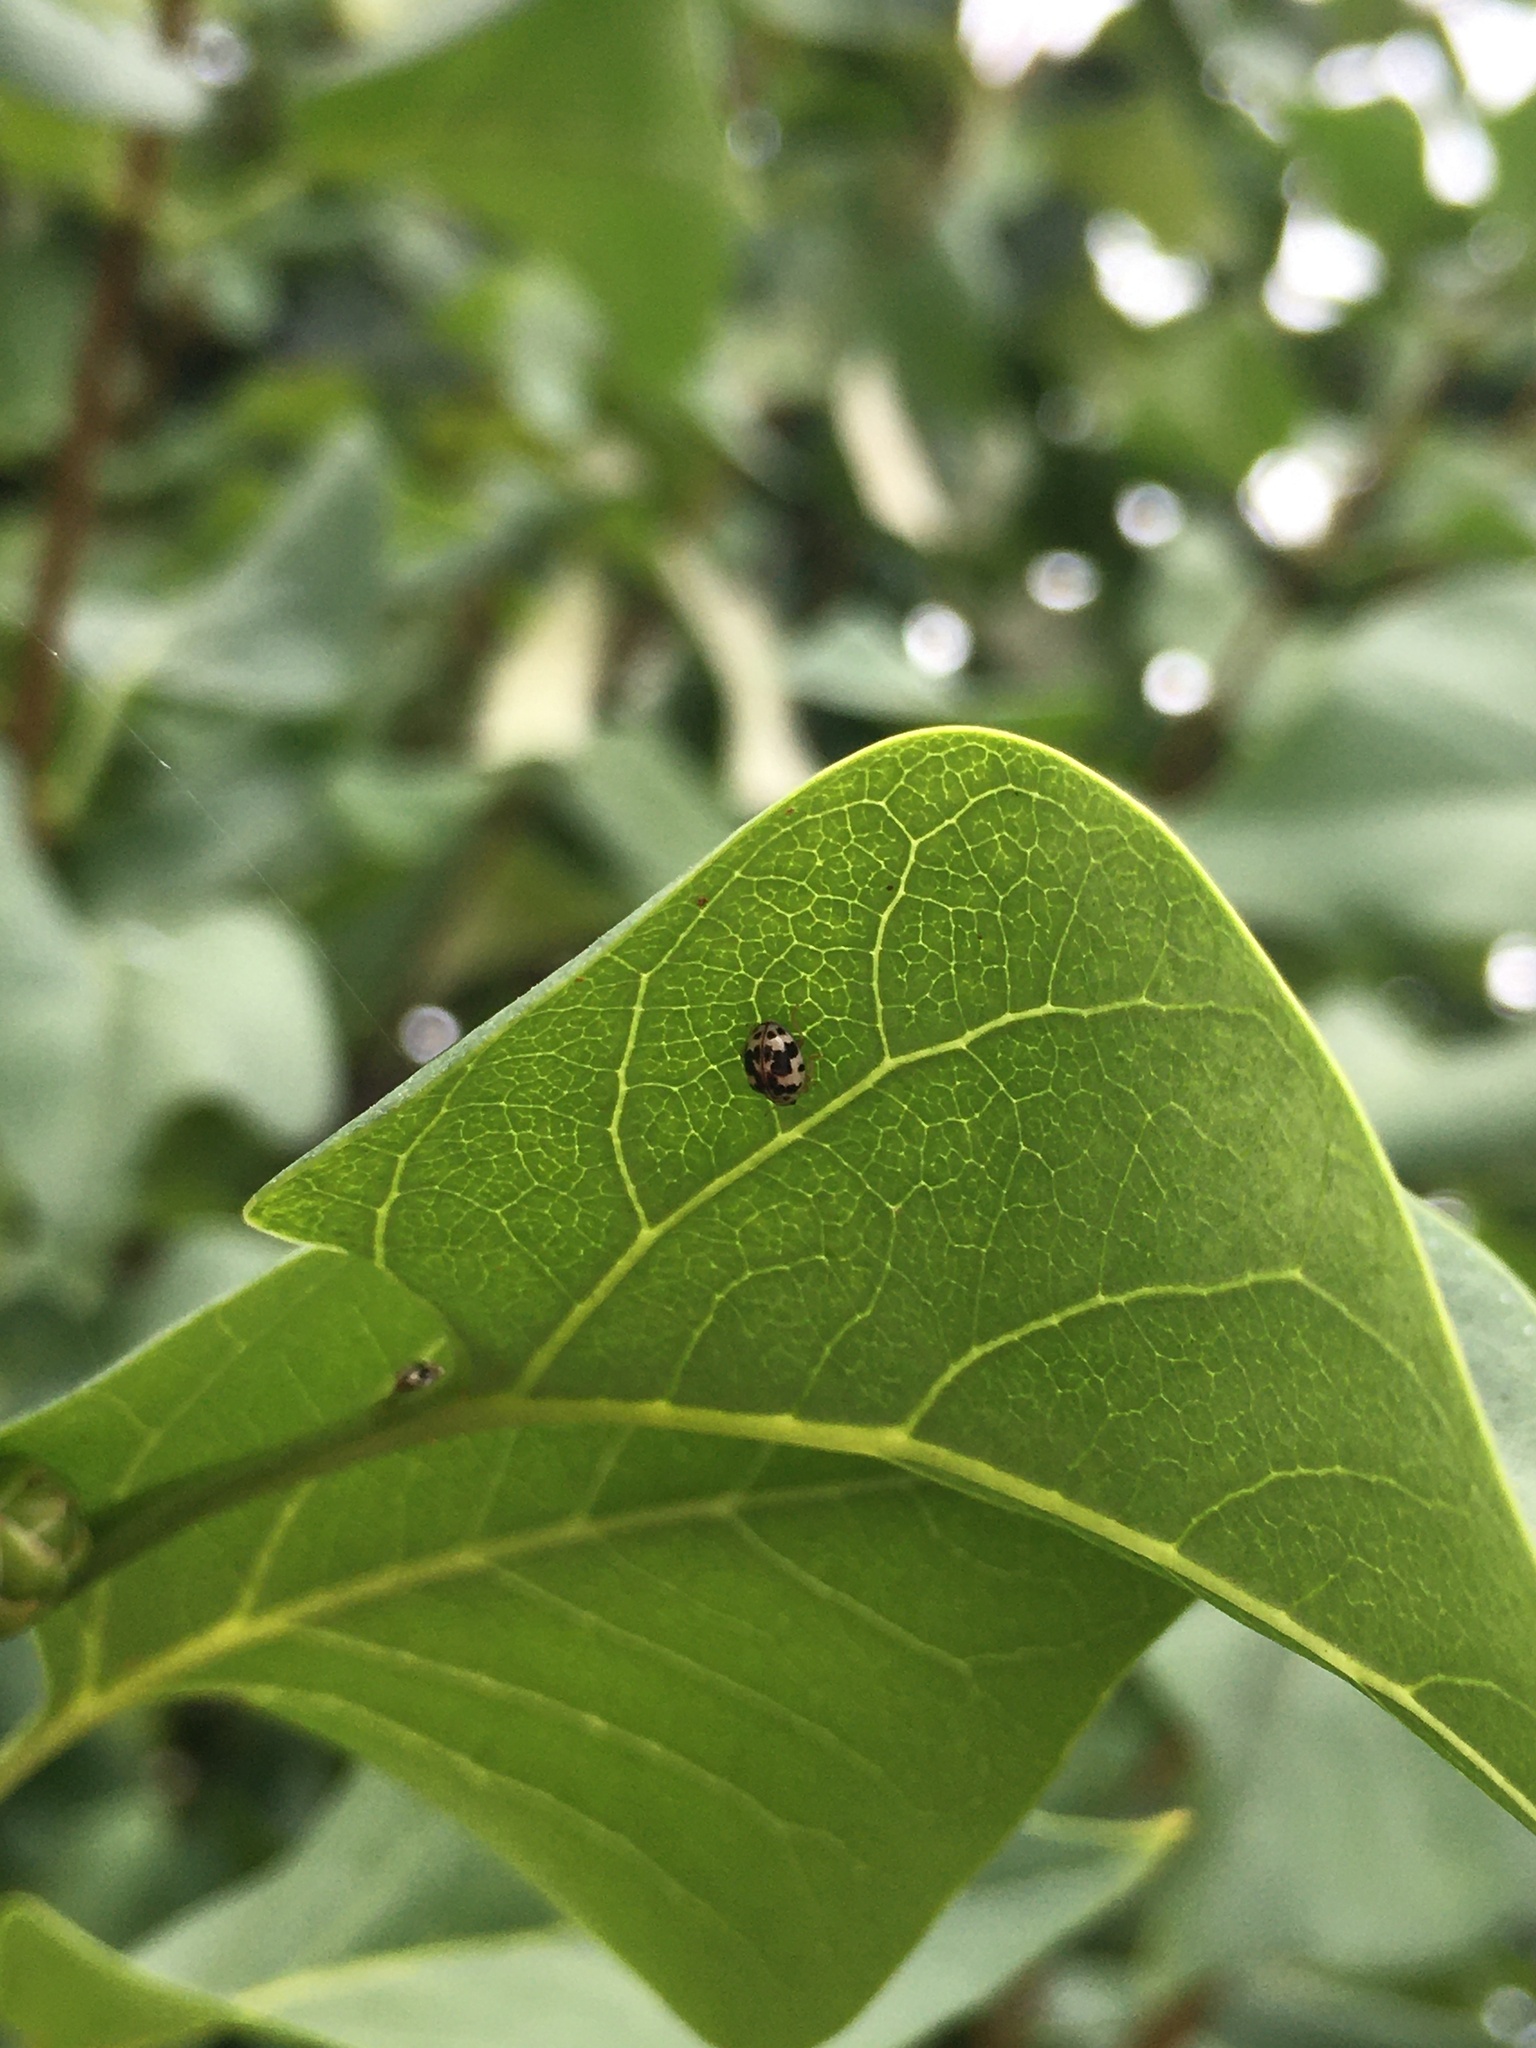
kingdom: Animalia
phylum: Arthropoda
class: Insecta
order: Coleoptera
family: Coccinellidae
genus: Psyllobora
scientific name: Psyllobora borealis
